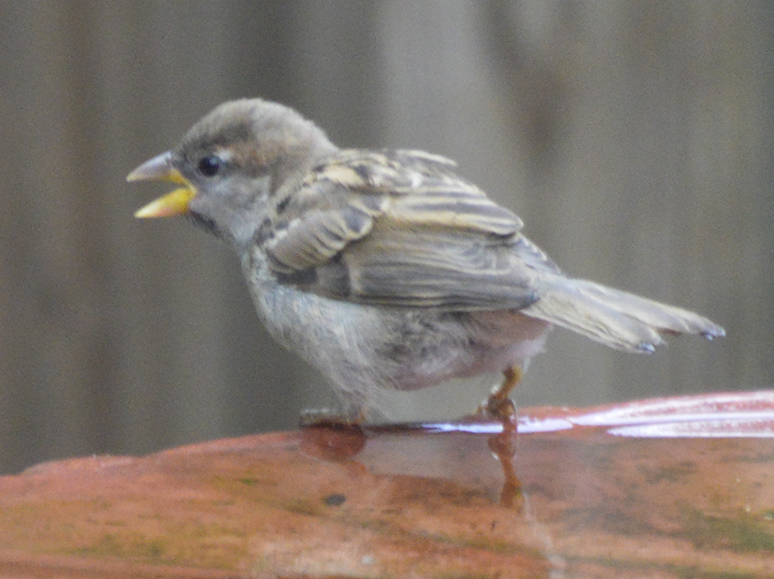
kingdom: Animalia
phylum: Chordata
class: Aves
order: Passeriformes
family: Passeridae
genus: Passer
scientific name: Passer domesticus
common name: House sparrow
